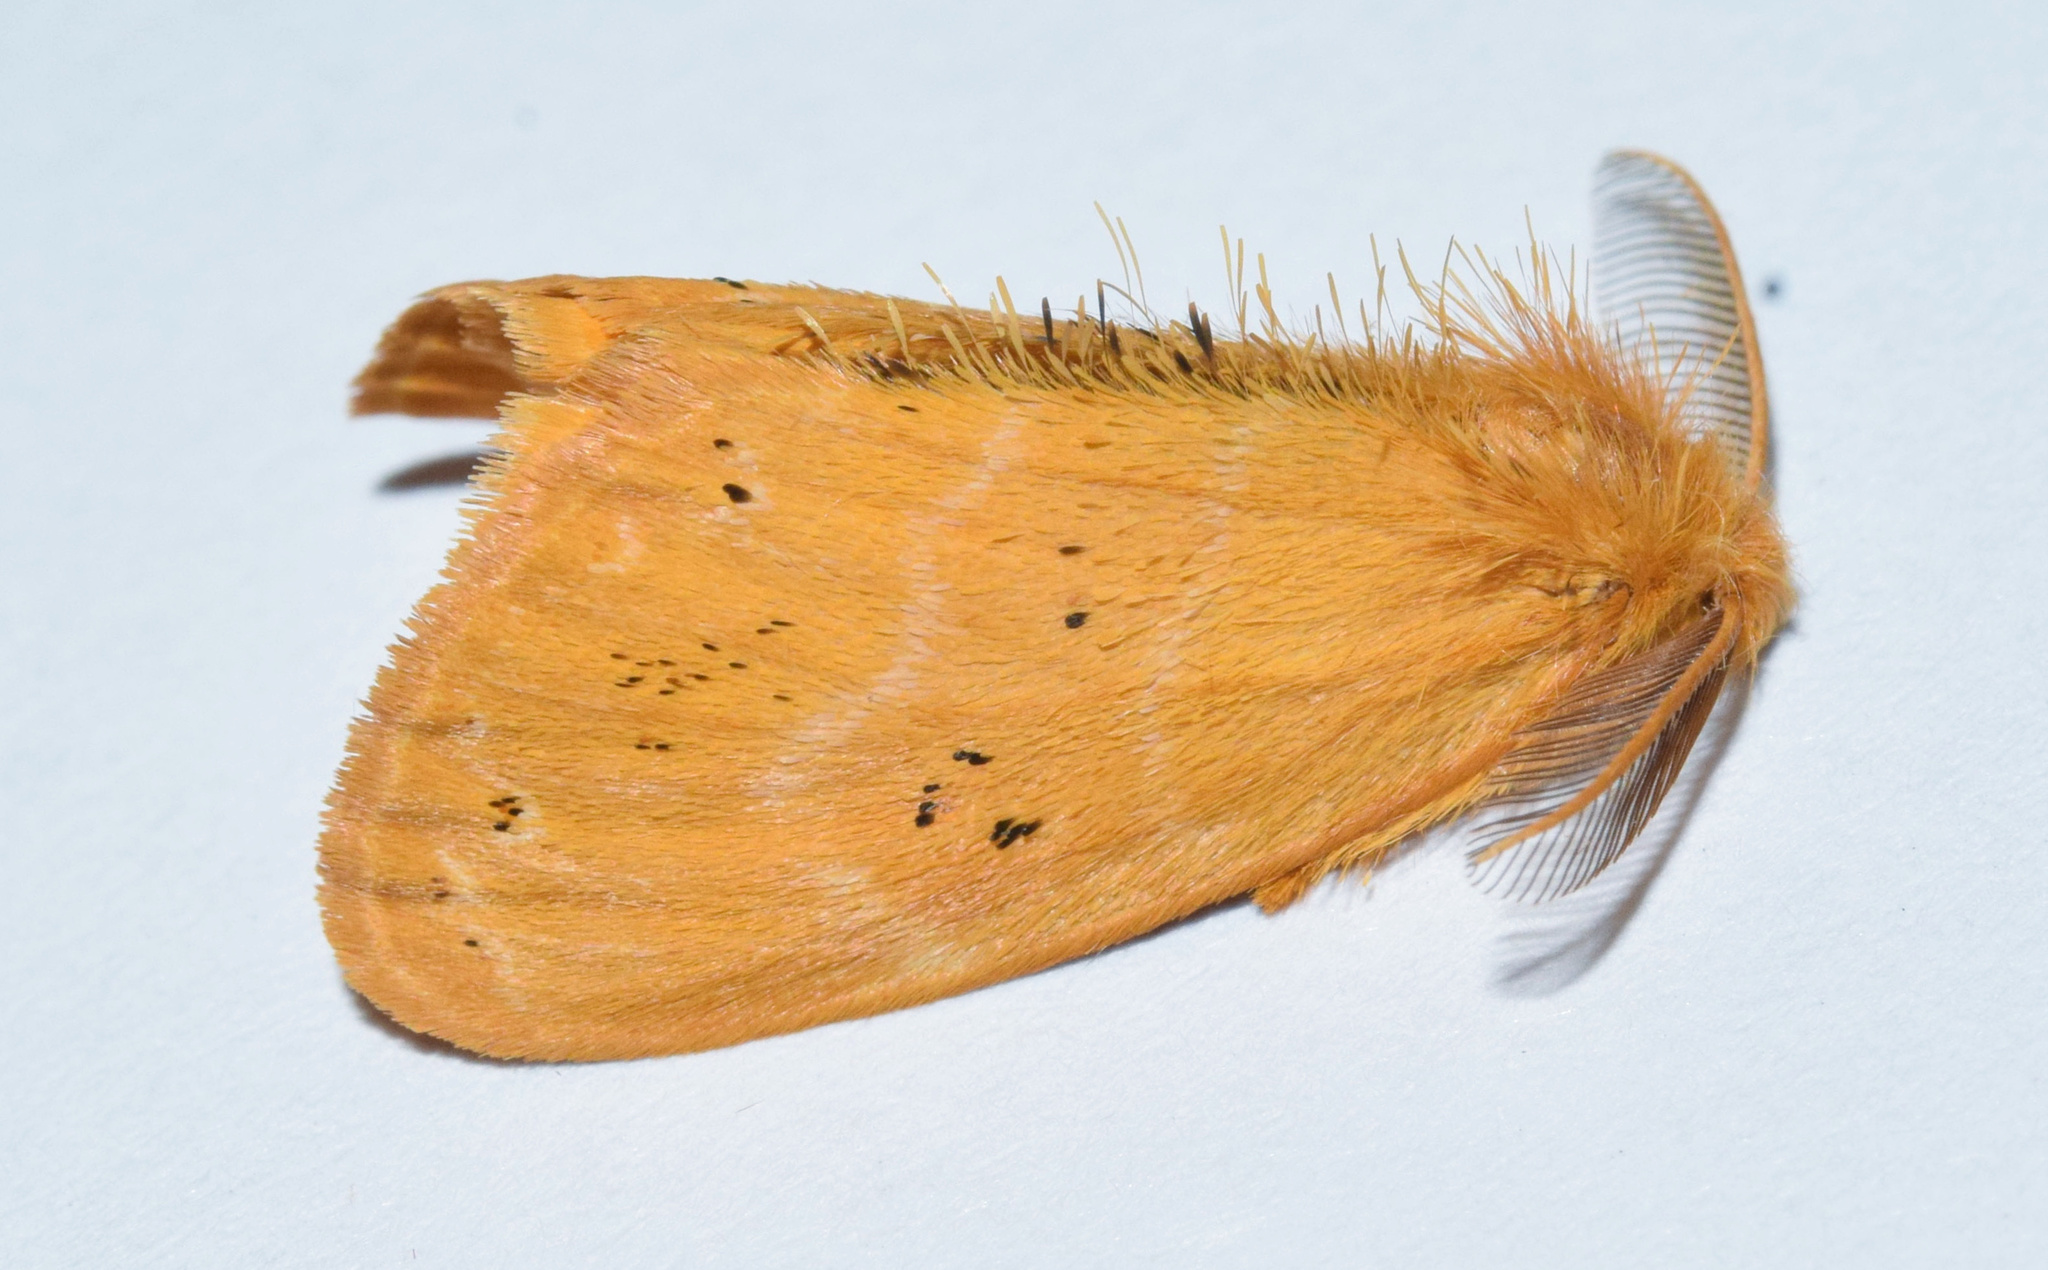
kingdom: Animalia
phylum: Arthropoda
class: Insecta
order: Lepidoptera
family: Erebidae
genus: Euproctis
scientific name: Euproctis punctifera
